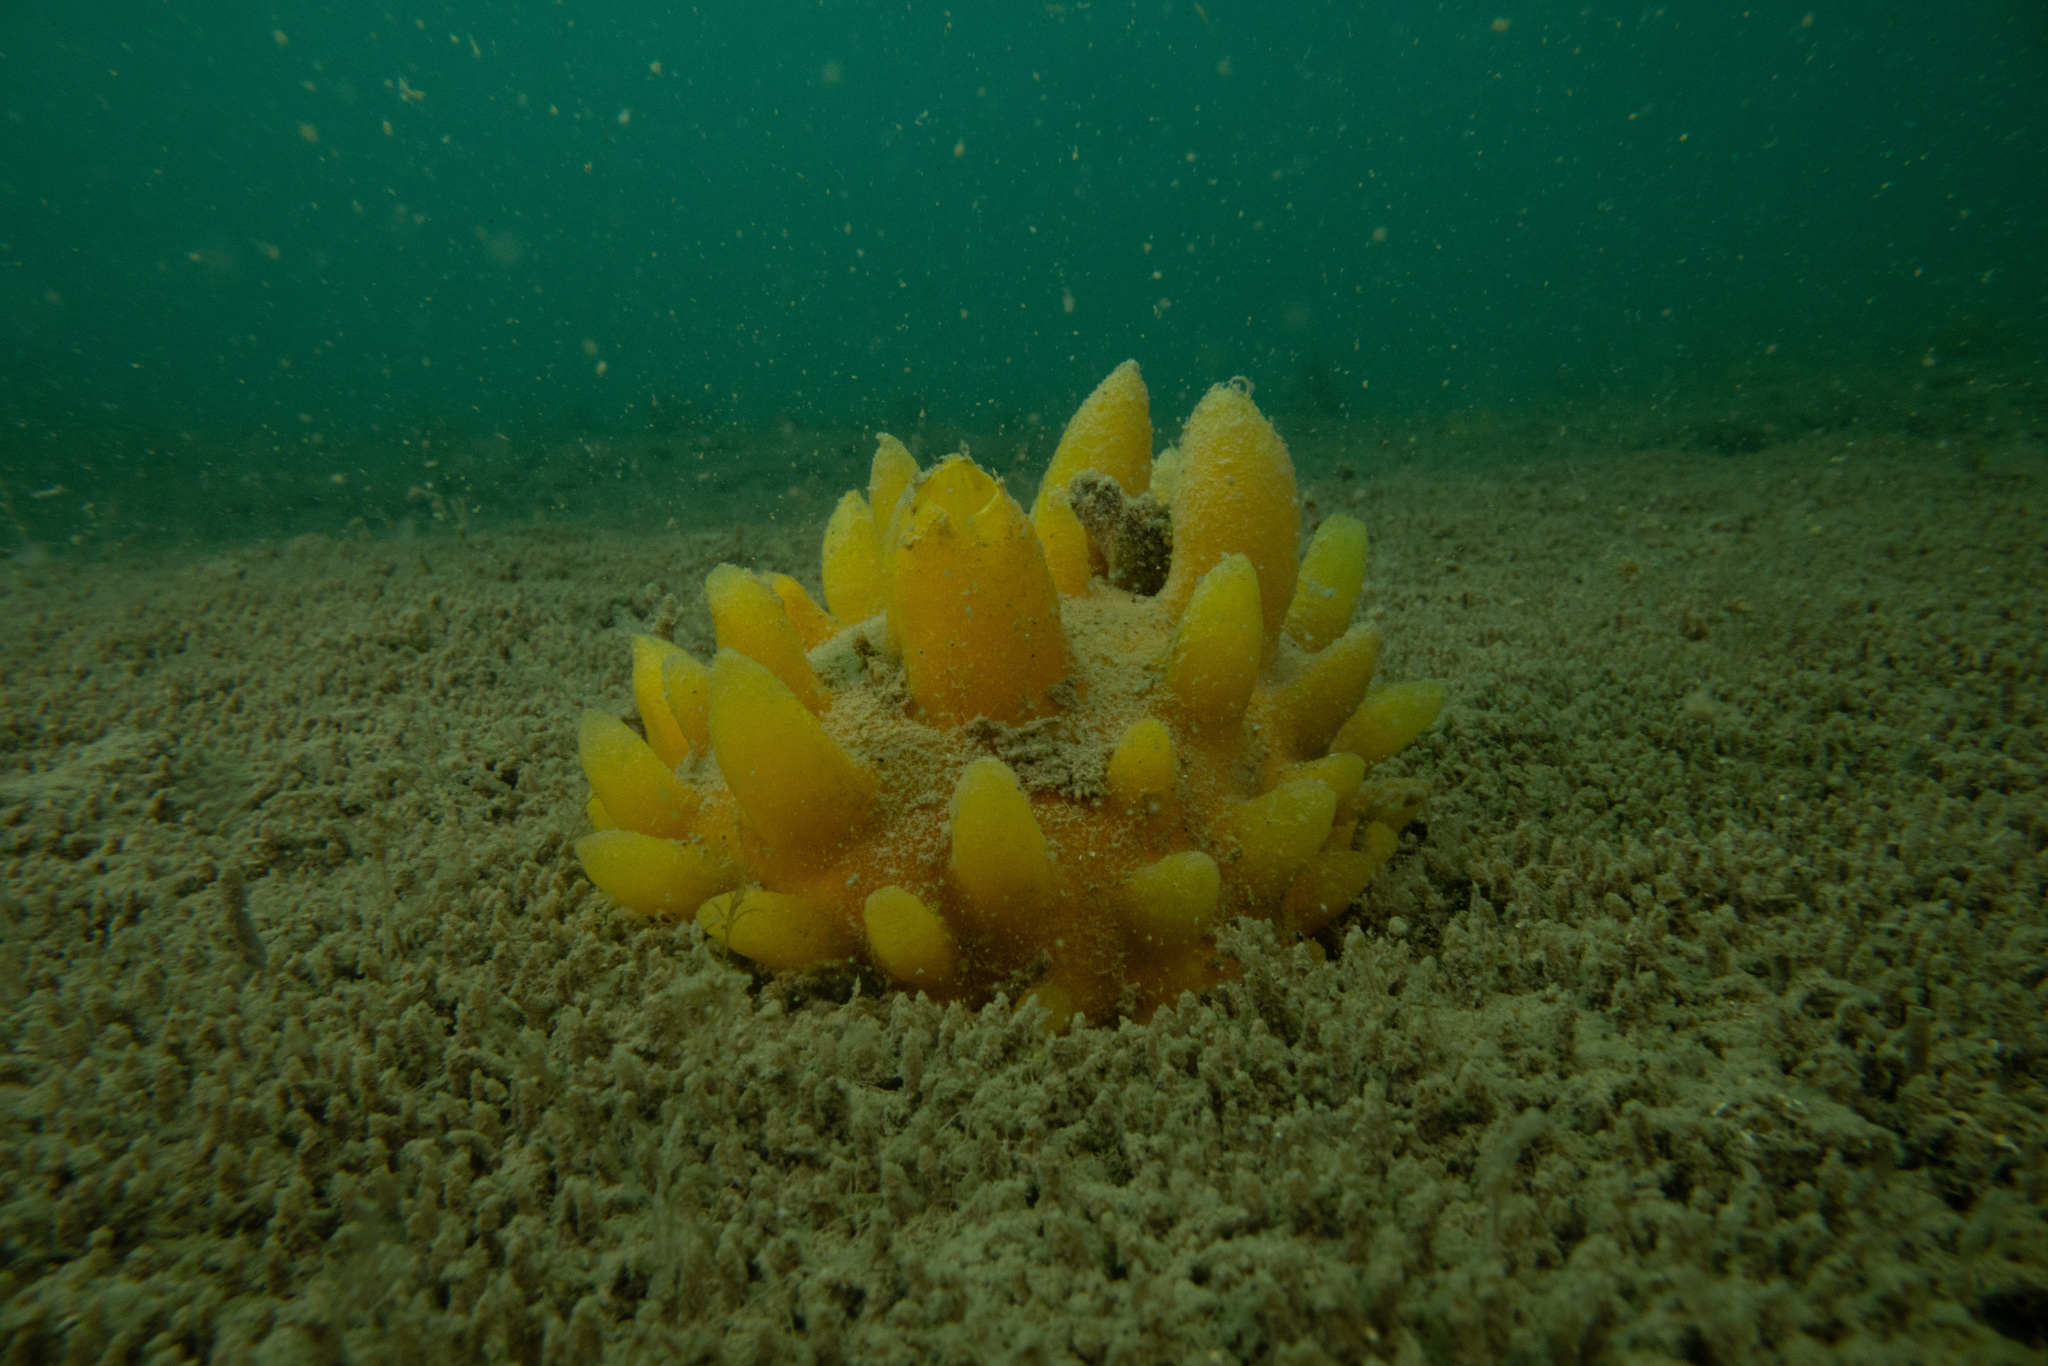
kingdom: Animalia
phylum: Porifera
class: Demospongiae
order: Polymastiida
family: Polymastiidae
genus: Polymastia
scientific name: Polymastia crocea
